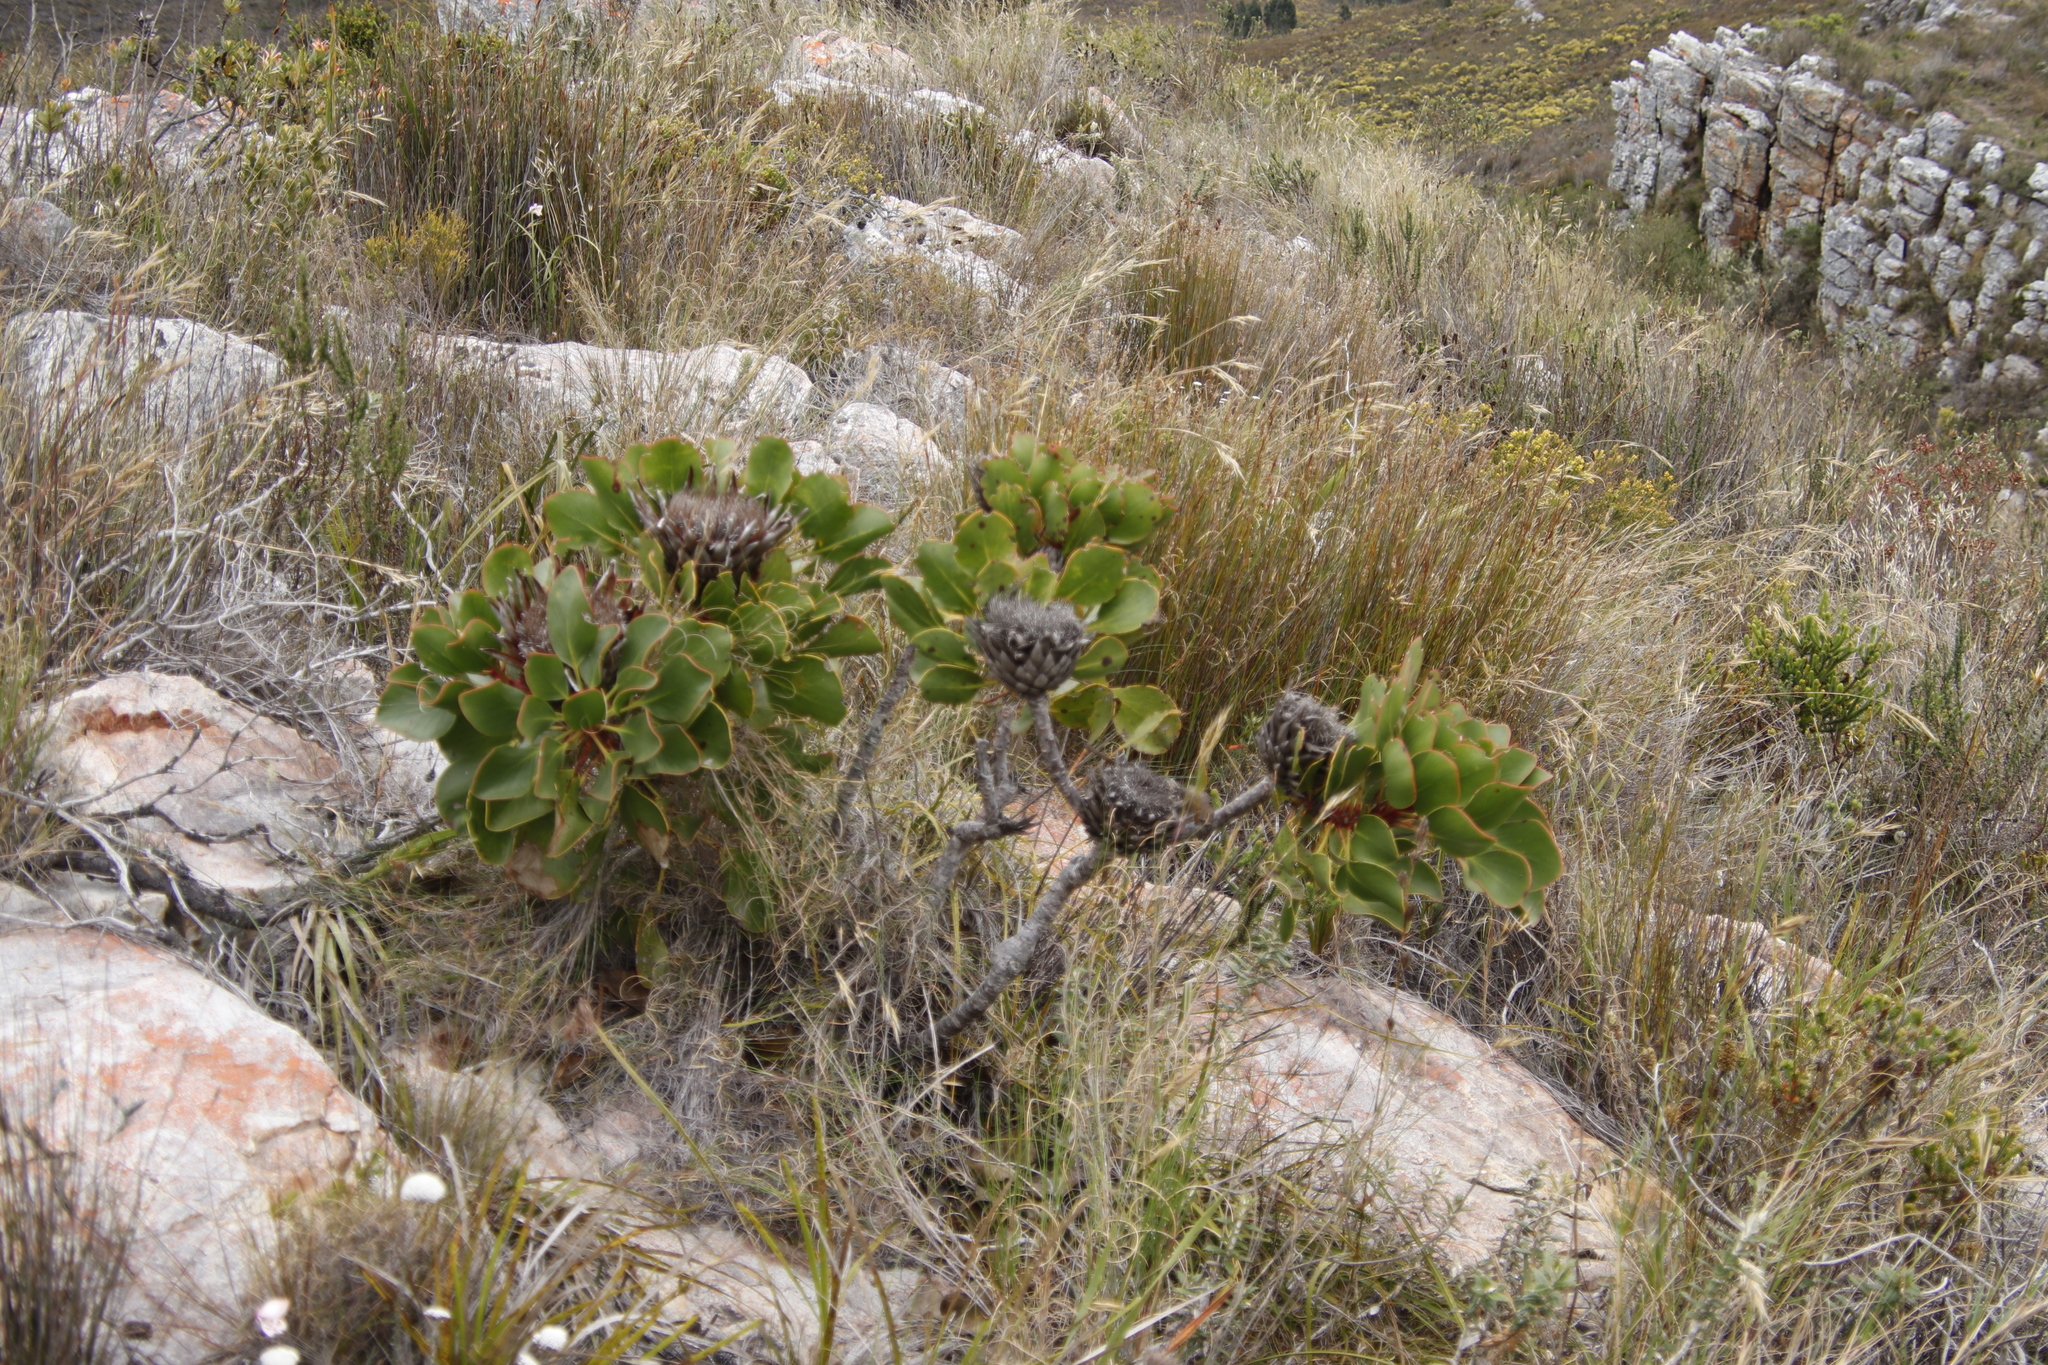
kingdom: Plantae
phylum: Tracheophyta
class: Magnoliopsida
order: Proteales
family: Proteaceae
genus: Protea
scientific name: Protea cynaroides
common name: King protea
